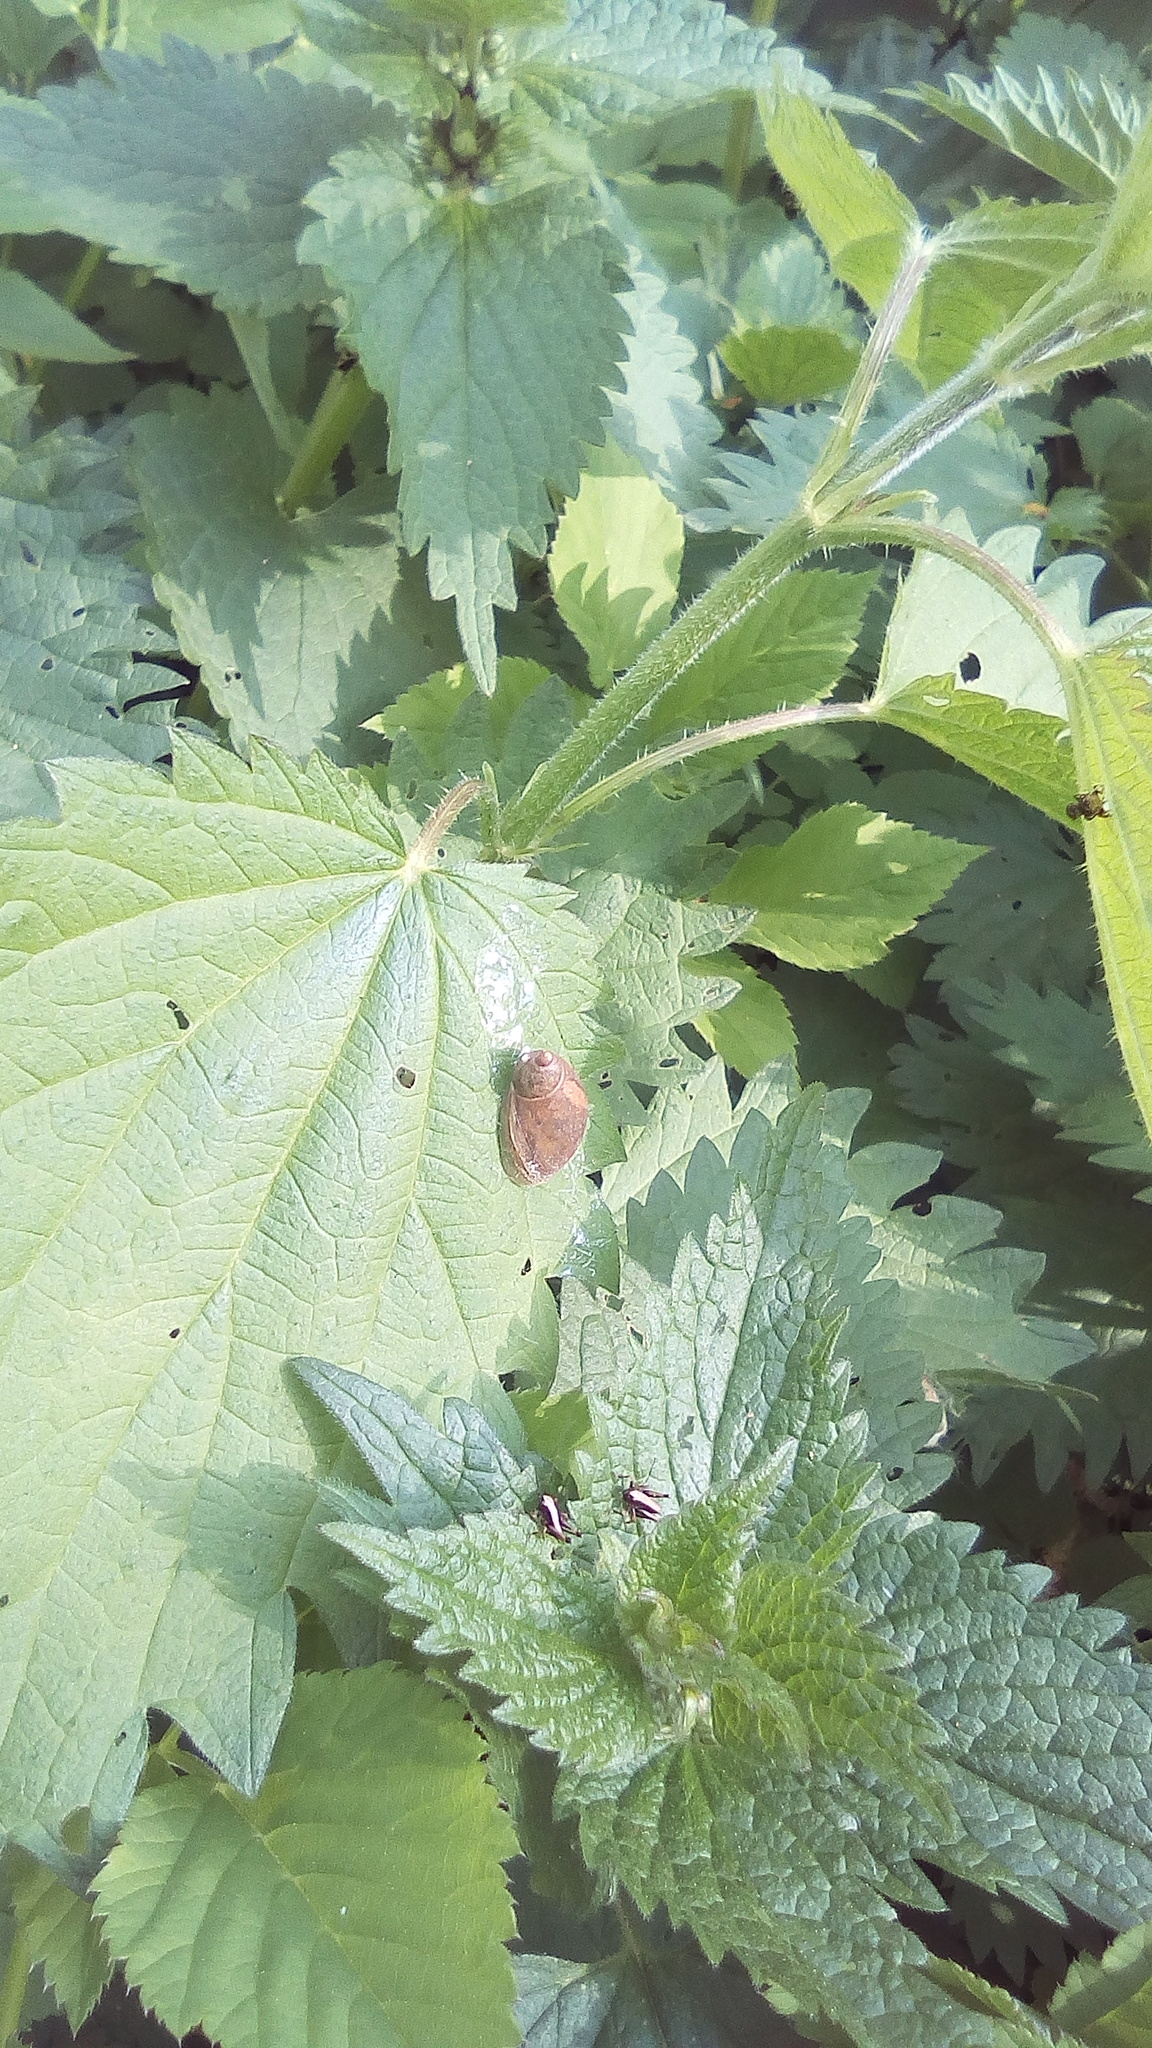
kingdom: Plantae
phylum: Tracheophyta
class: Magnoliopsida
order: Rosales
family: Urticaceae
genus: Urtica
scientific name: Urtica dioica
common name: Common nettle
